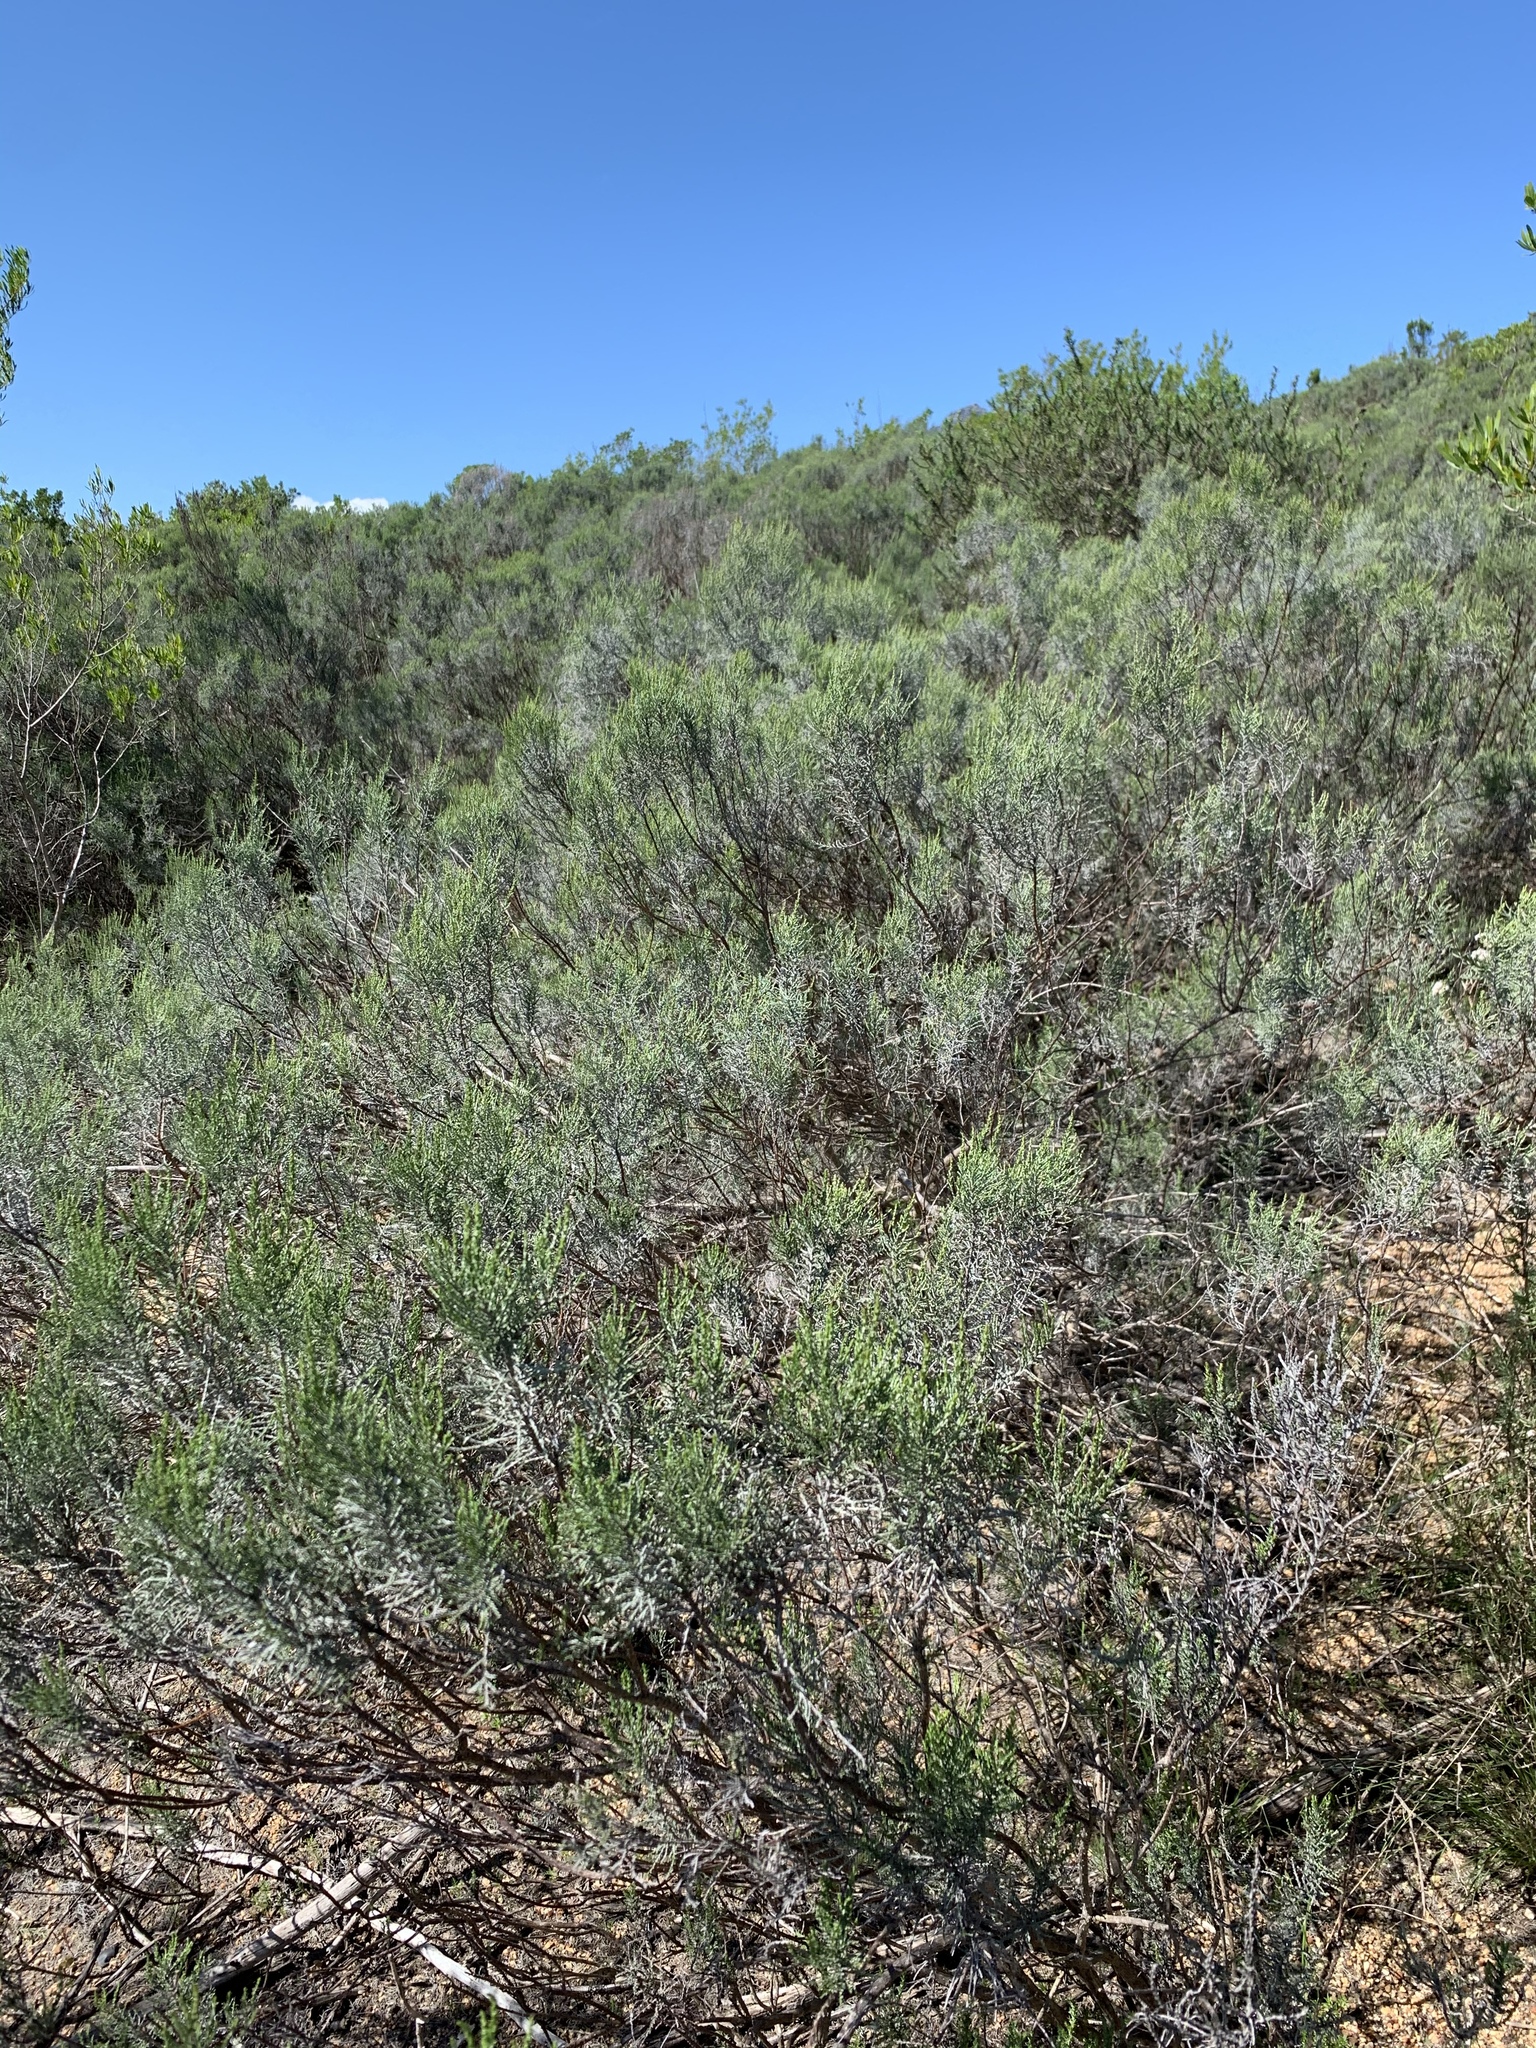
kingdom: Plantae
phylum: Tracheophyta
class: Magnoliopsida
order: Asterales
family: Asteraceae
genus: Dicerothamnus
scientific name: Dicerothamnus rhinocerotis
